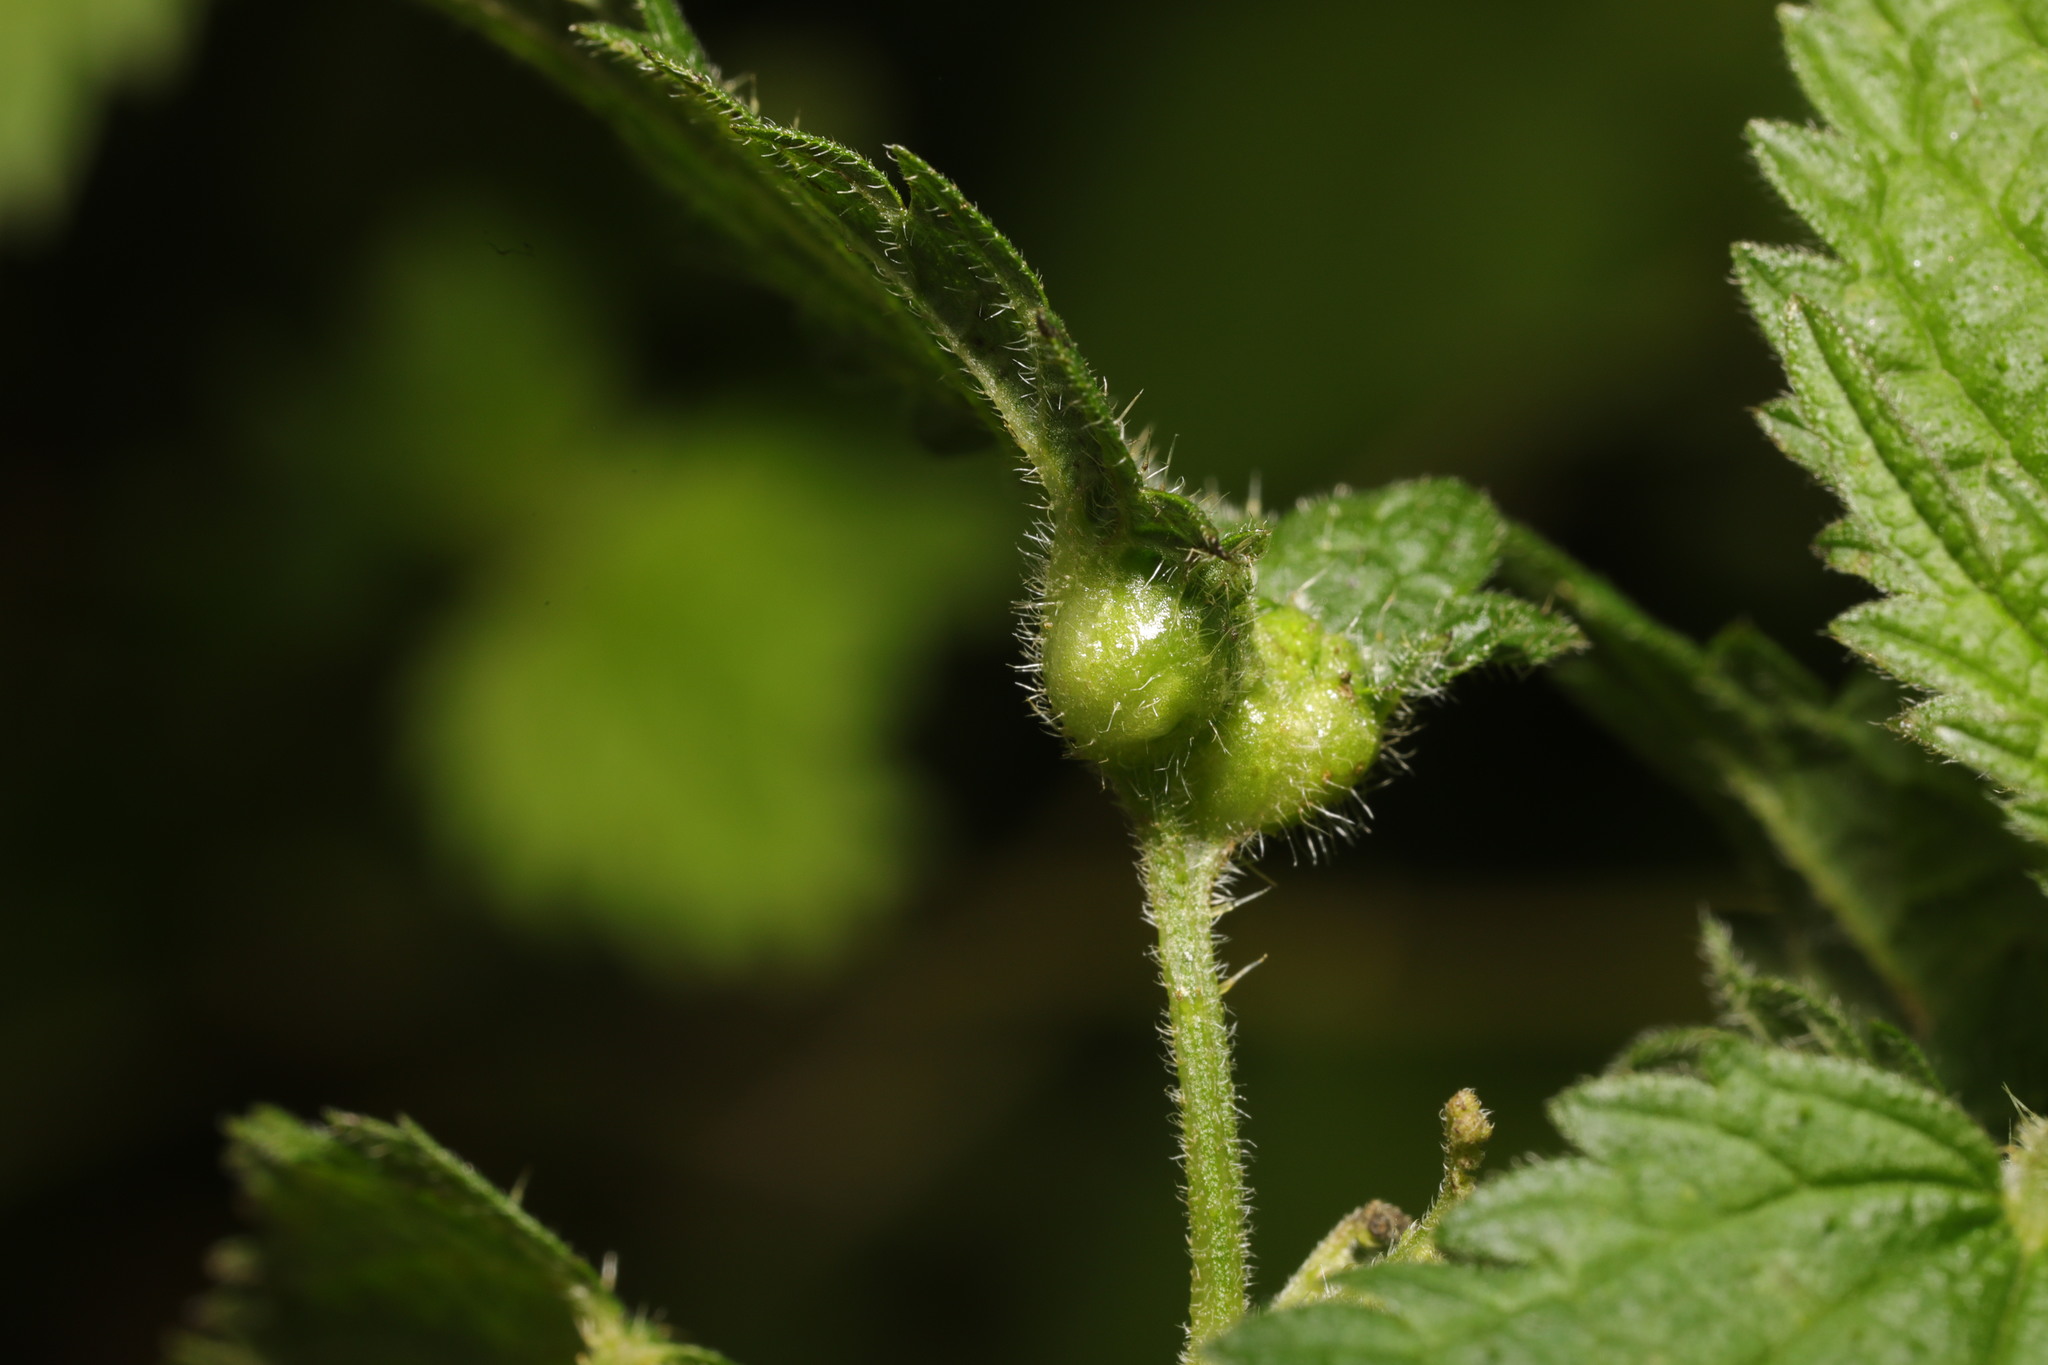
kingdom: Animalia
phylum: Arthropoda
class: Insecta
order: Diptera
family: Cecidomyiidae
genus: Dasineura
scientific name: Dasineura urticae
